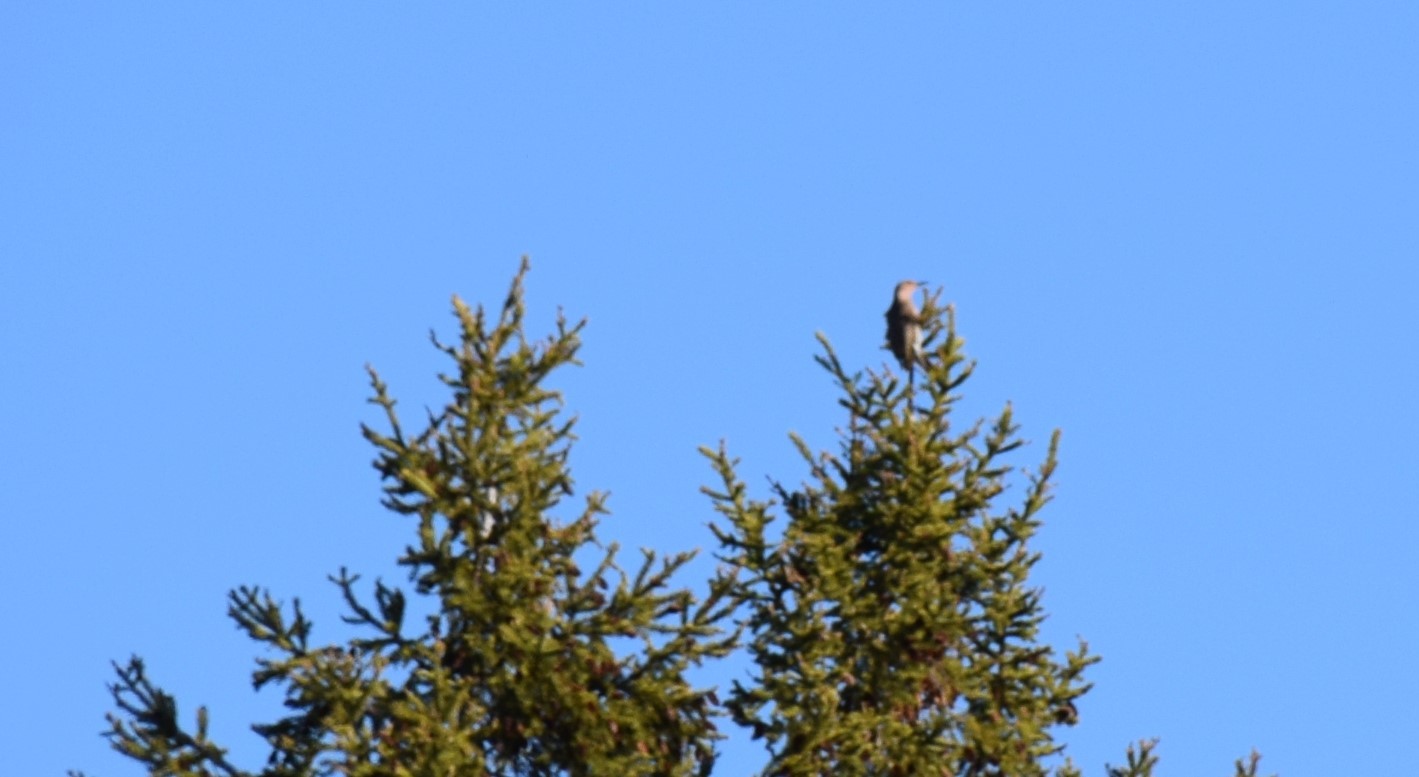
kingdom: Animalia
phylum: Chordata
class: Aves
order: Piciformes
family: Picidae
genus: Colaptes
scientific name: Colaptes auratus
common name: Northern flicker
